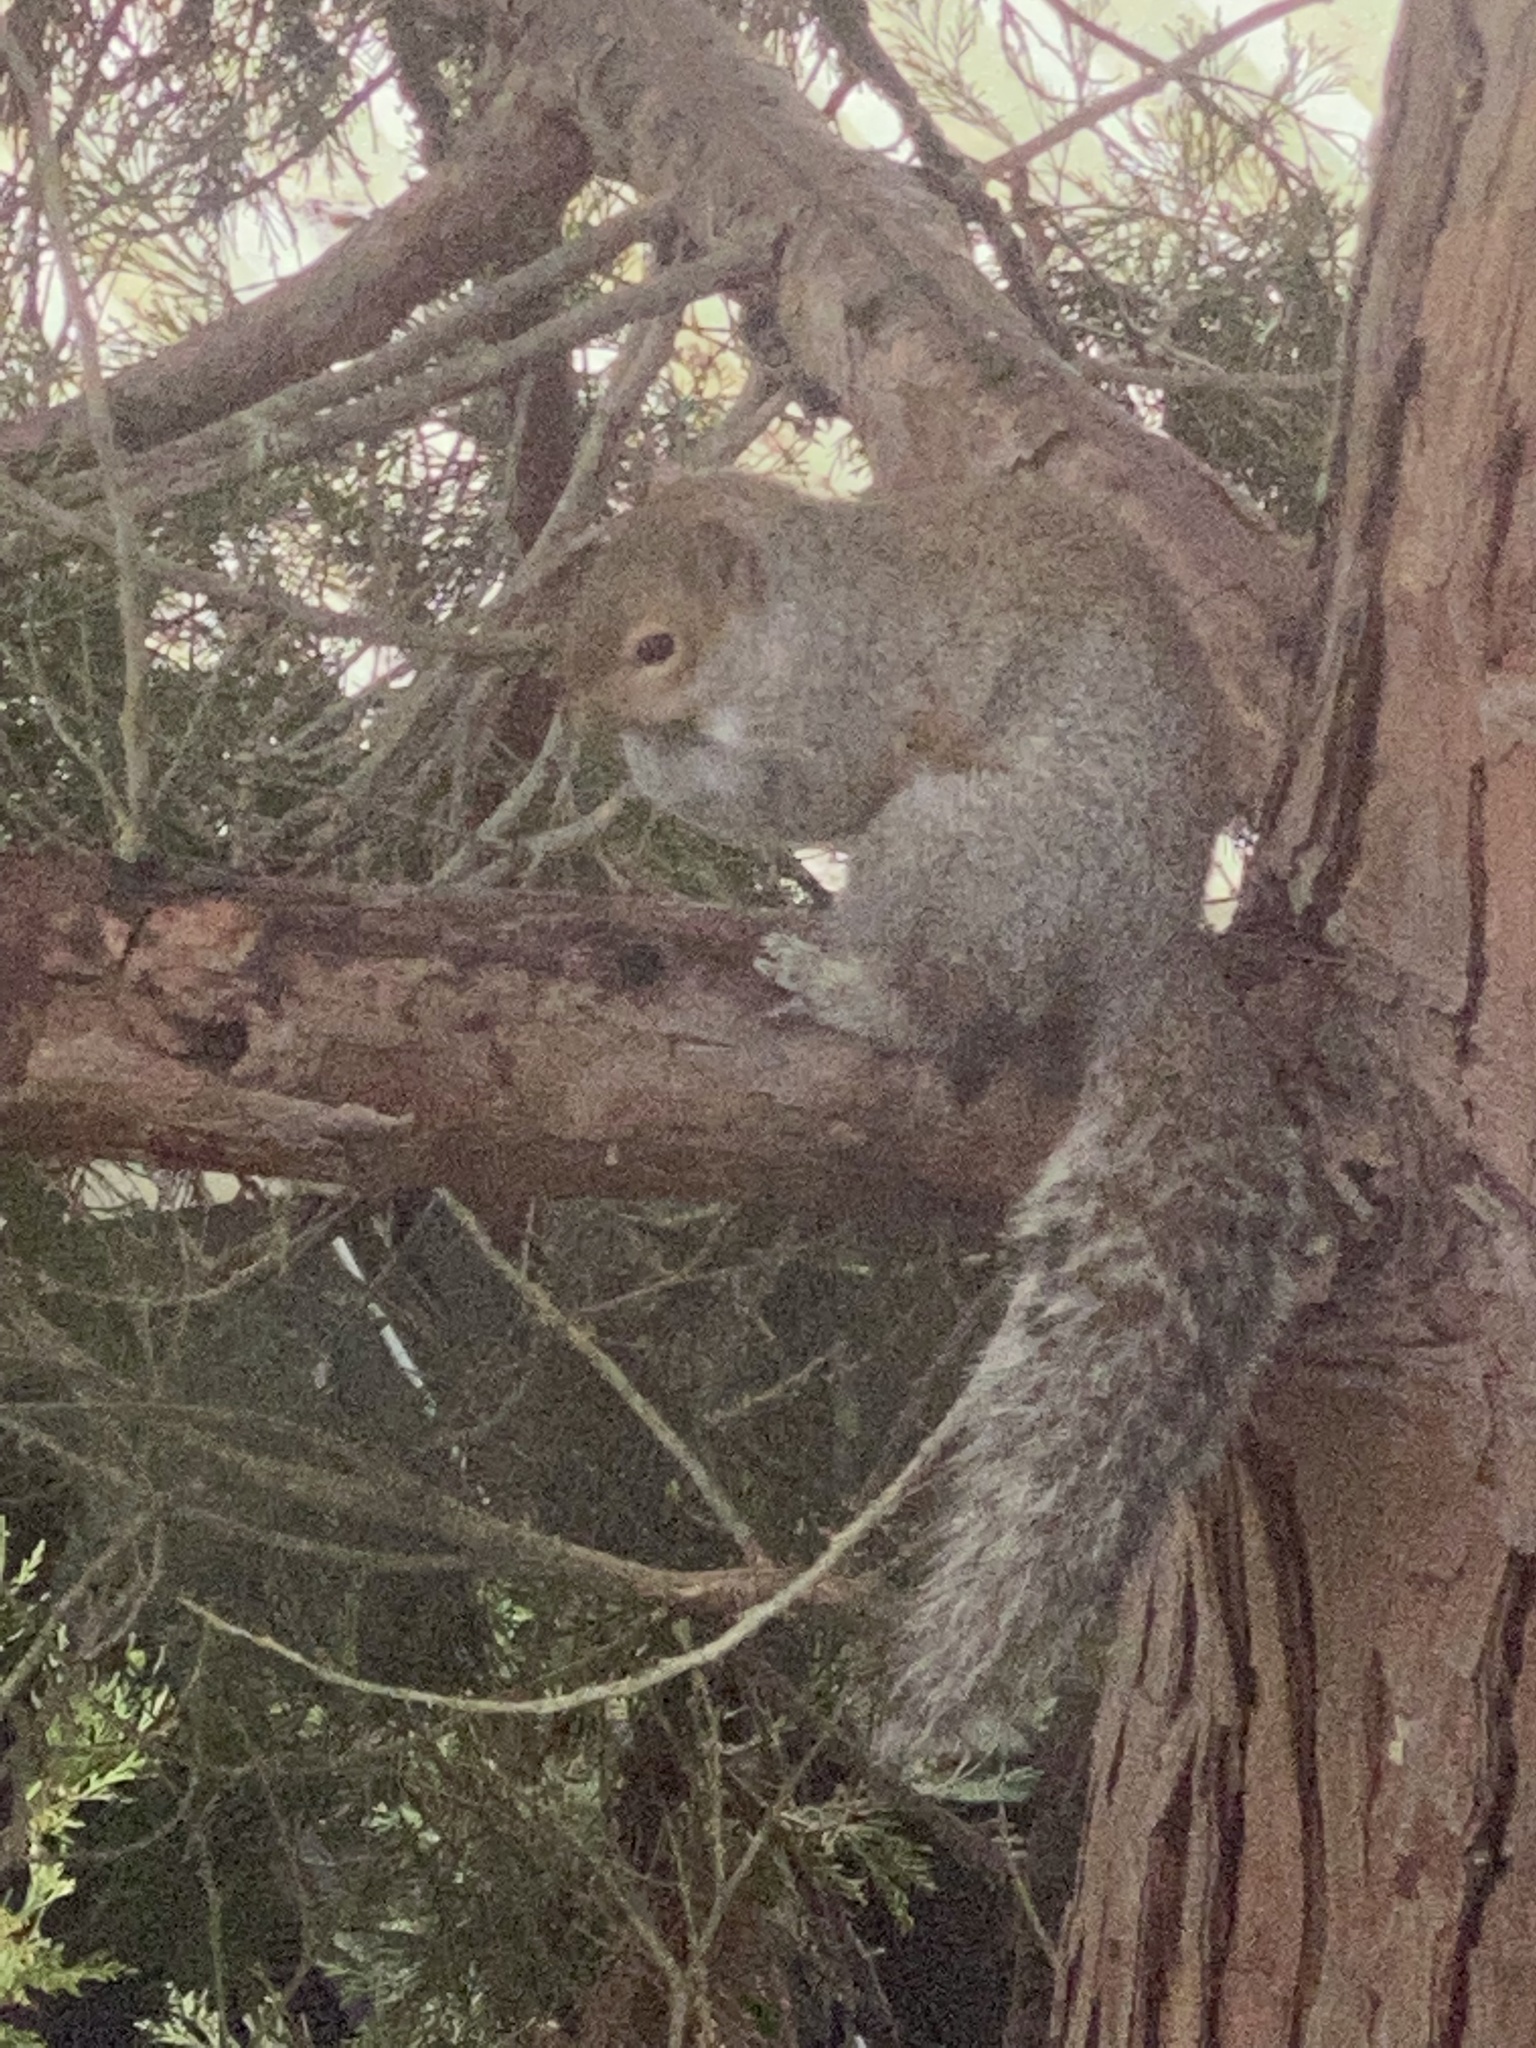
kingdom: Animalia
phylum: Chordata
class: Mammalia
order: Rodentia
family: Sciuridae
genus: Sciurus
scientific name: Sciurus carolinensis
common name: Eastern gray squirrel
